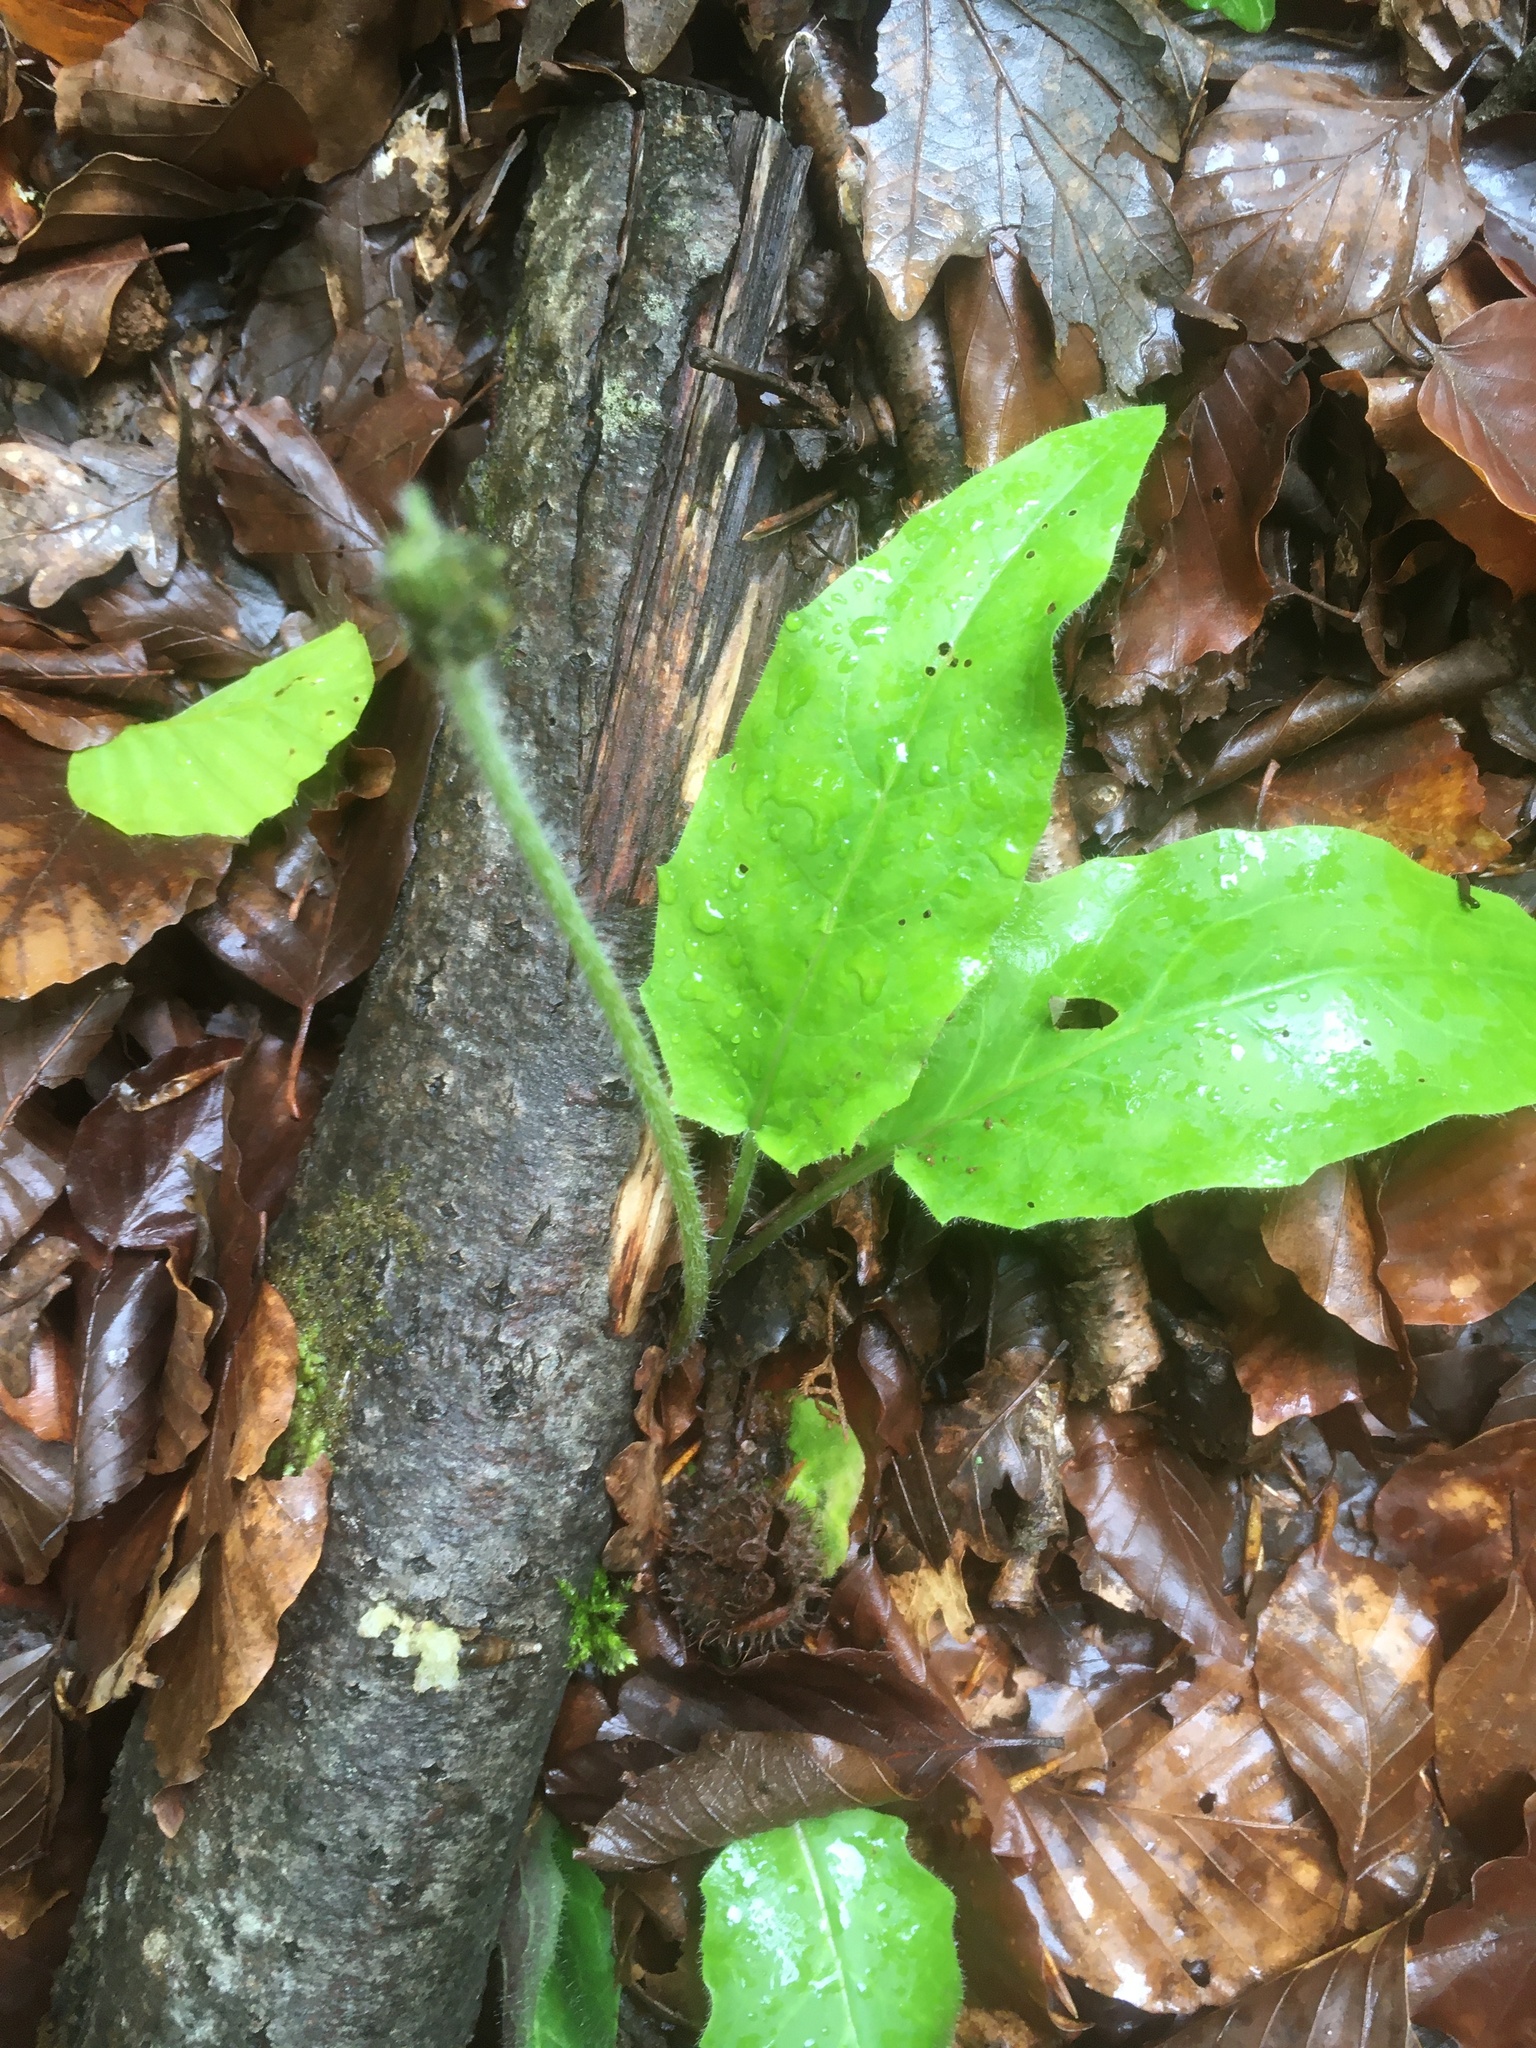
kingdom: Plantae
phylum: Tracheophyta
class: Liliopsida
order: Asparagales
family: Orchidaceae
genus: Neottia
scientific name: Neottia ovata
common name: Common twayblade
